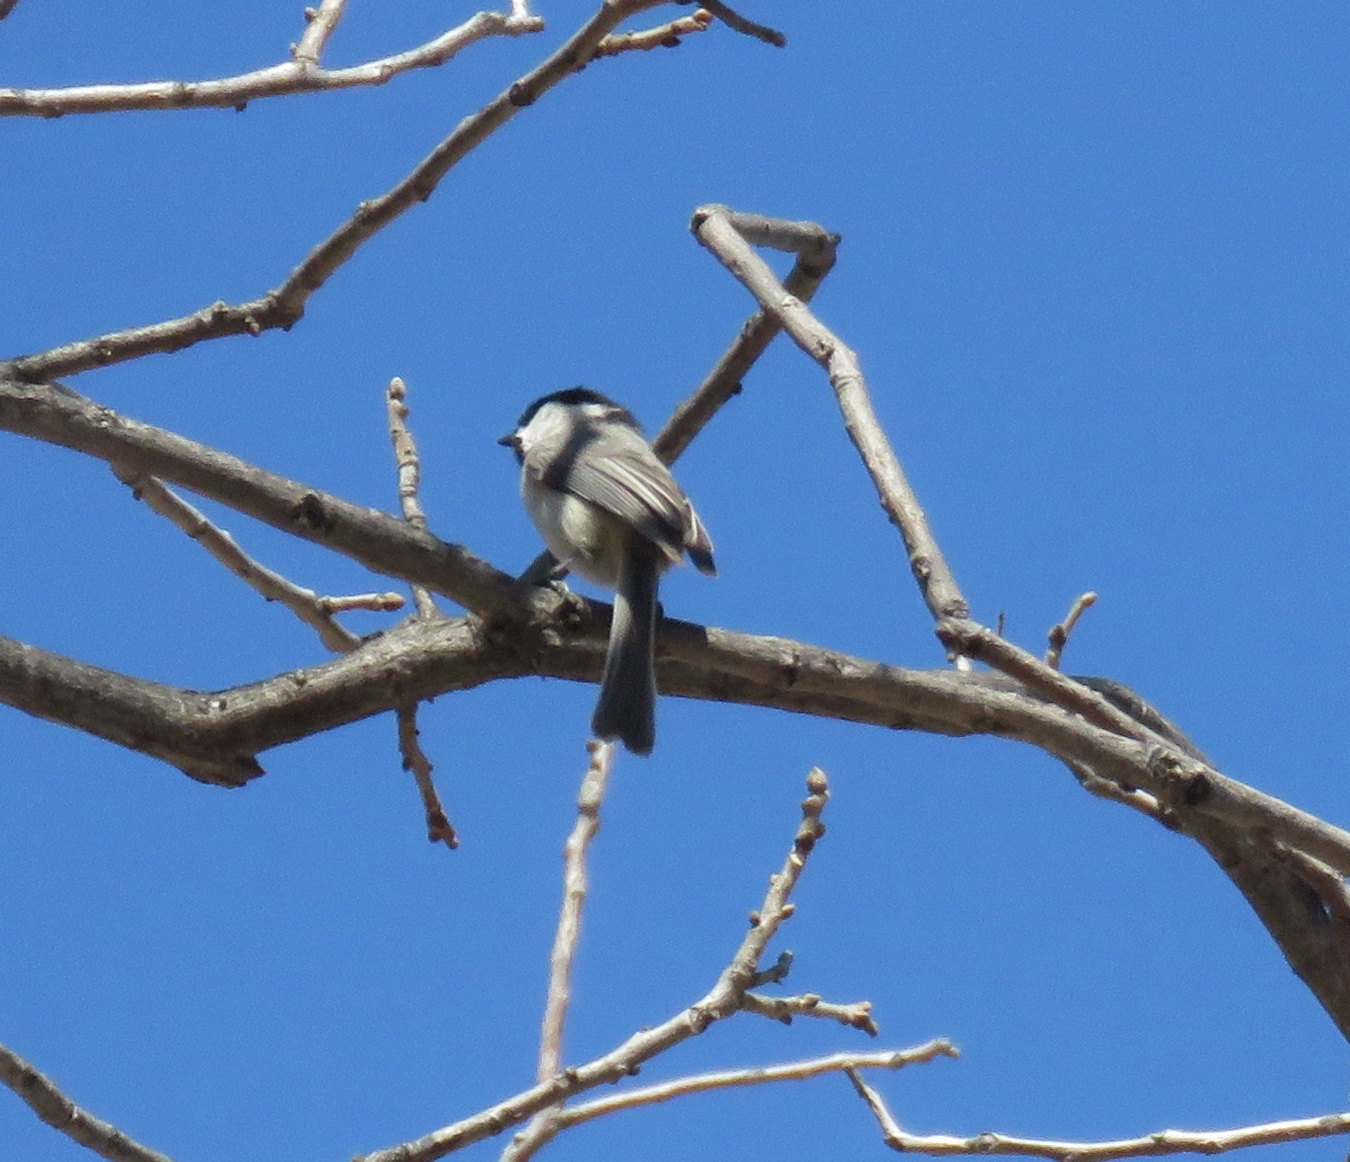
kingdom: Animalia
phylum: Chordata
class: Aves
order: Passeriformes
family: Paridae
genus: Poecile
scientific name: Poecile carolinensis
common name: Carolina chickadee
